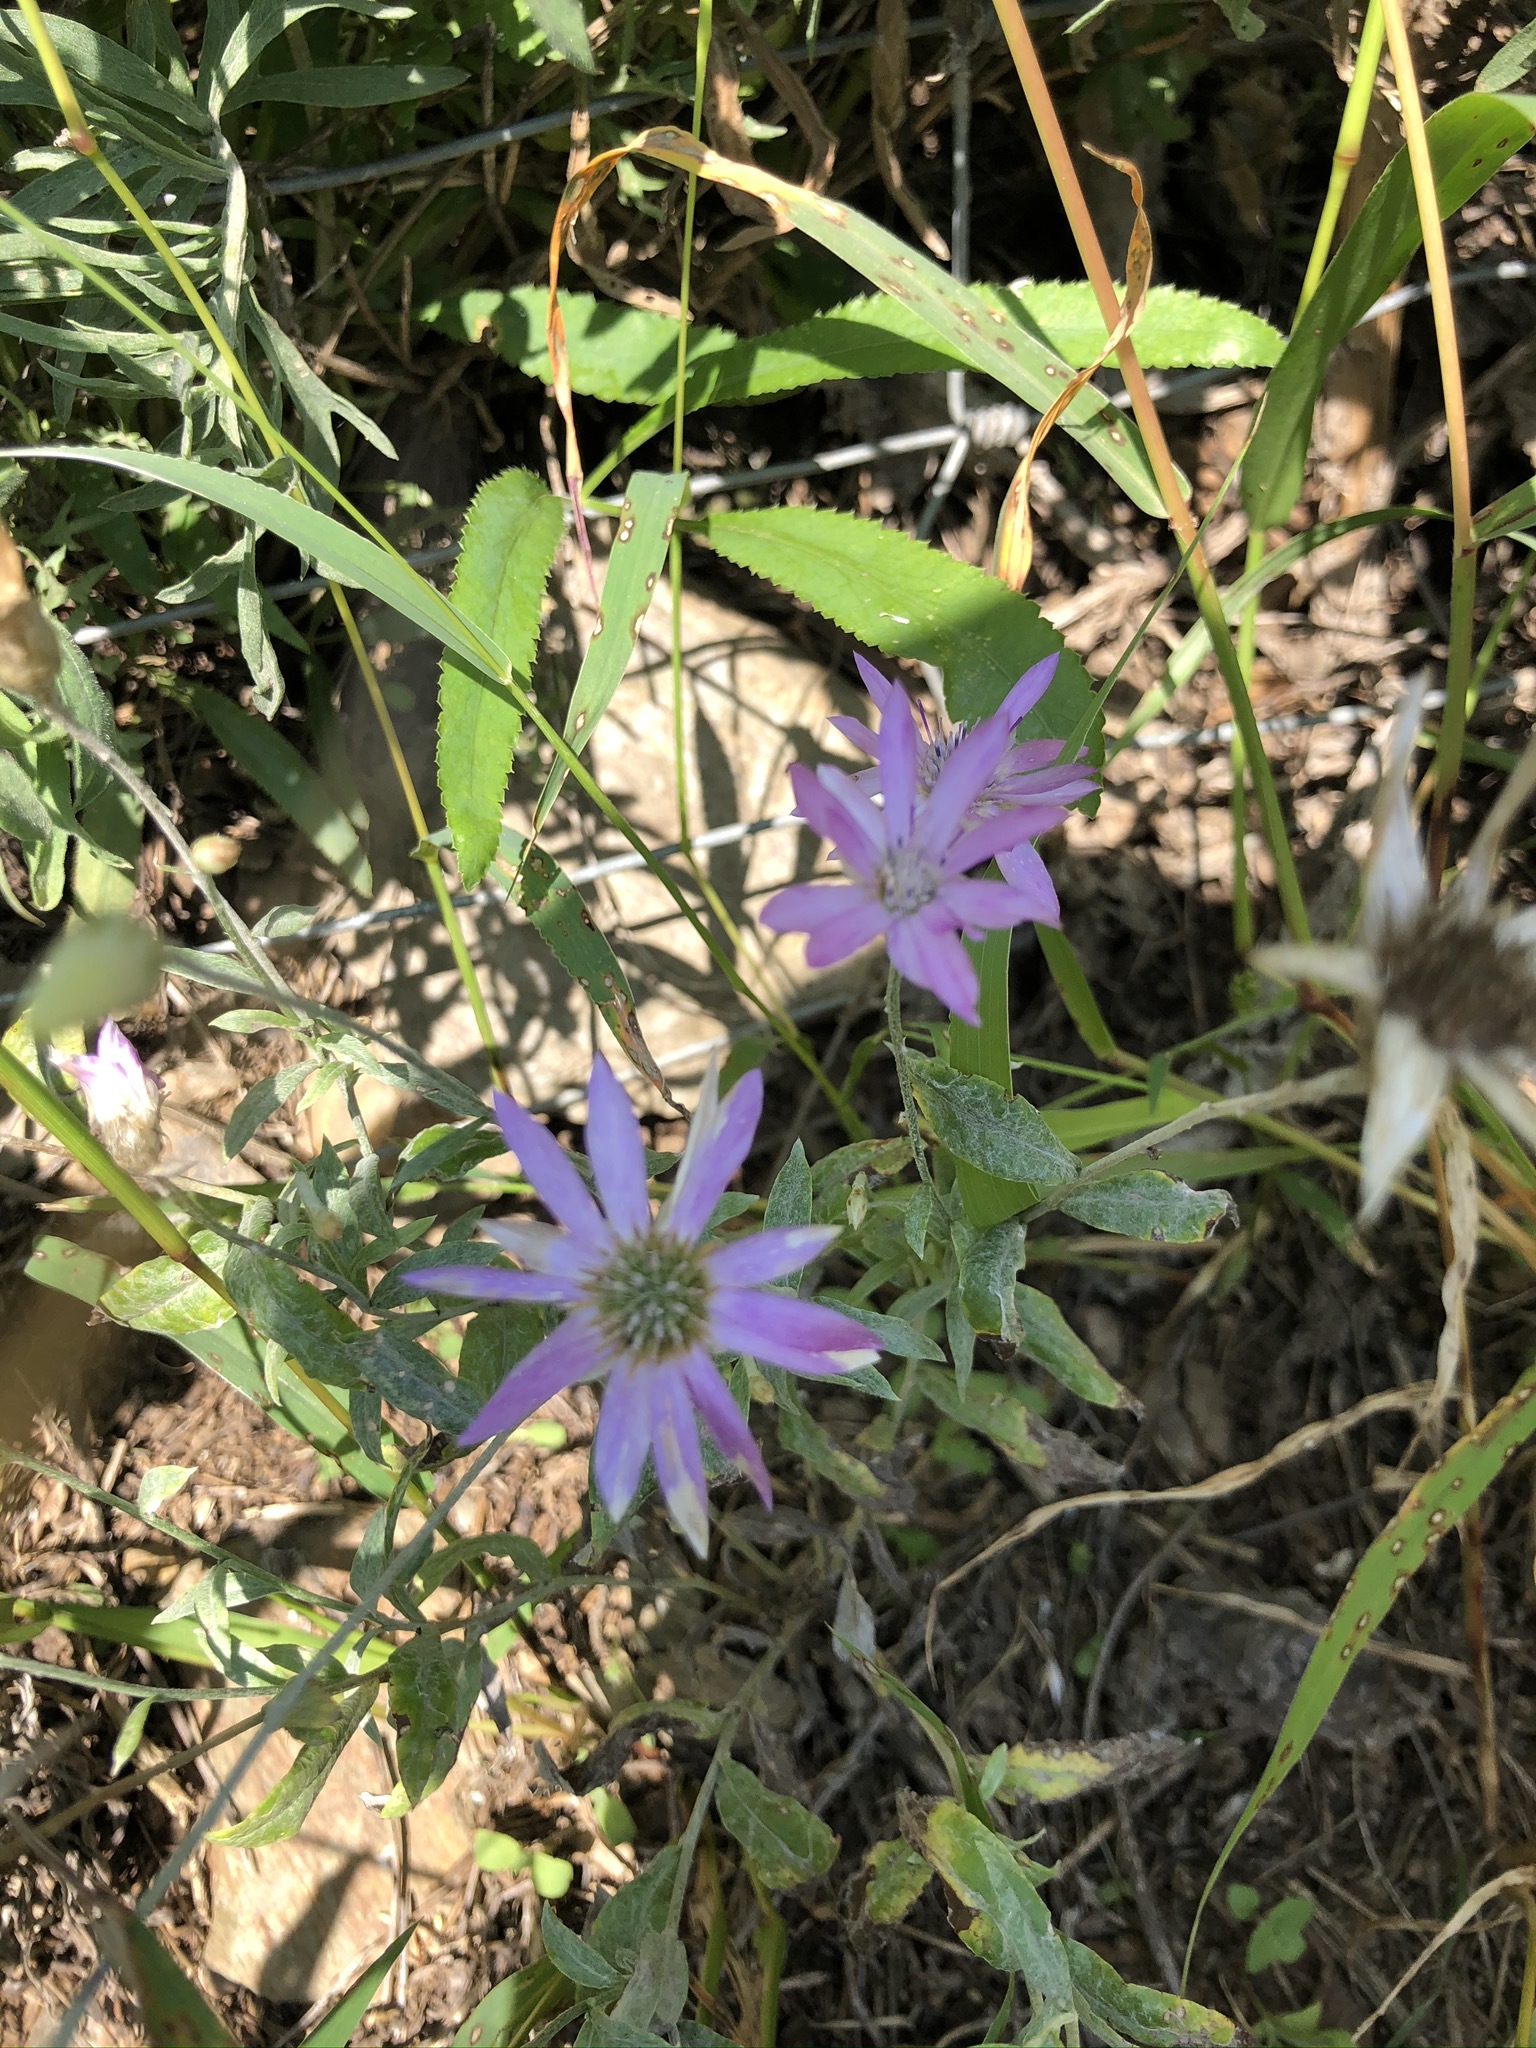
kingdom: Plantae
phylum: Tracheophyta
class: Magnoliopsida
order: Asterales
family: Asteraceae
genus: Xeranthemum
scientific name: Xeranthemum annuum
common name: Immortelle
